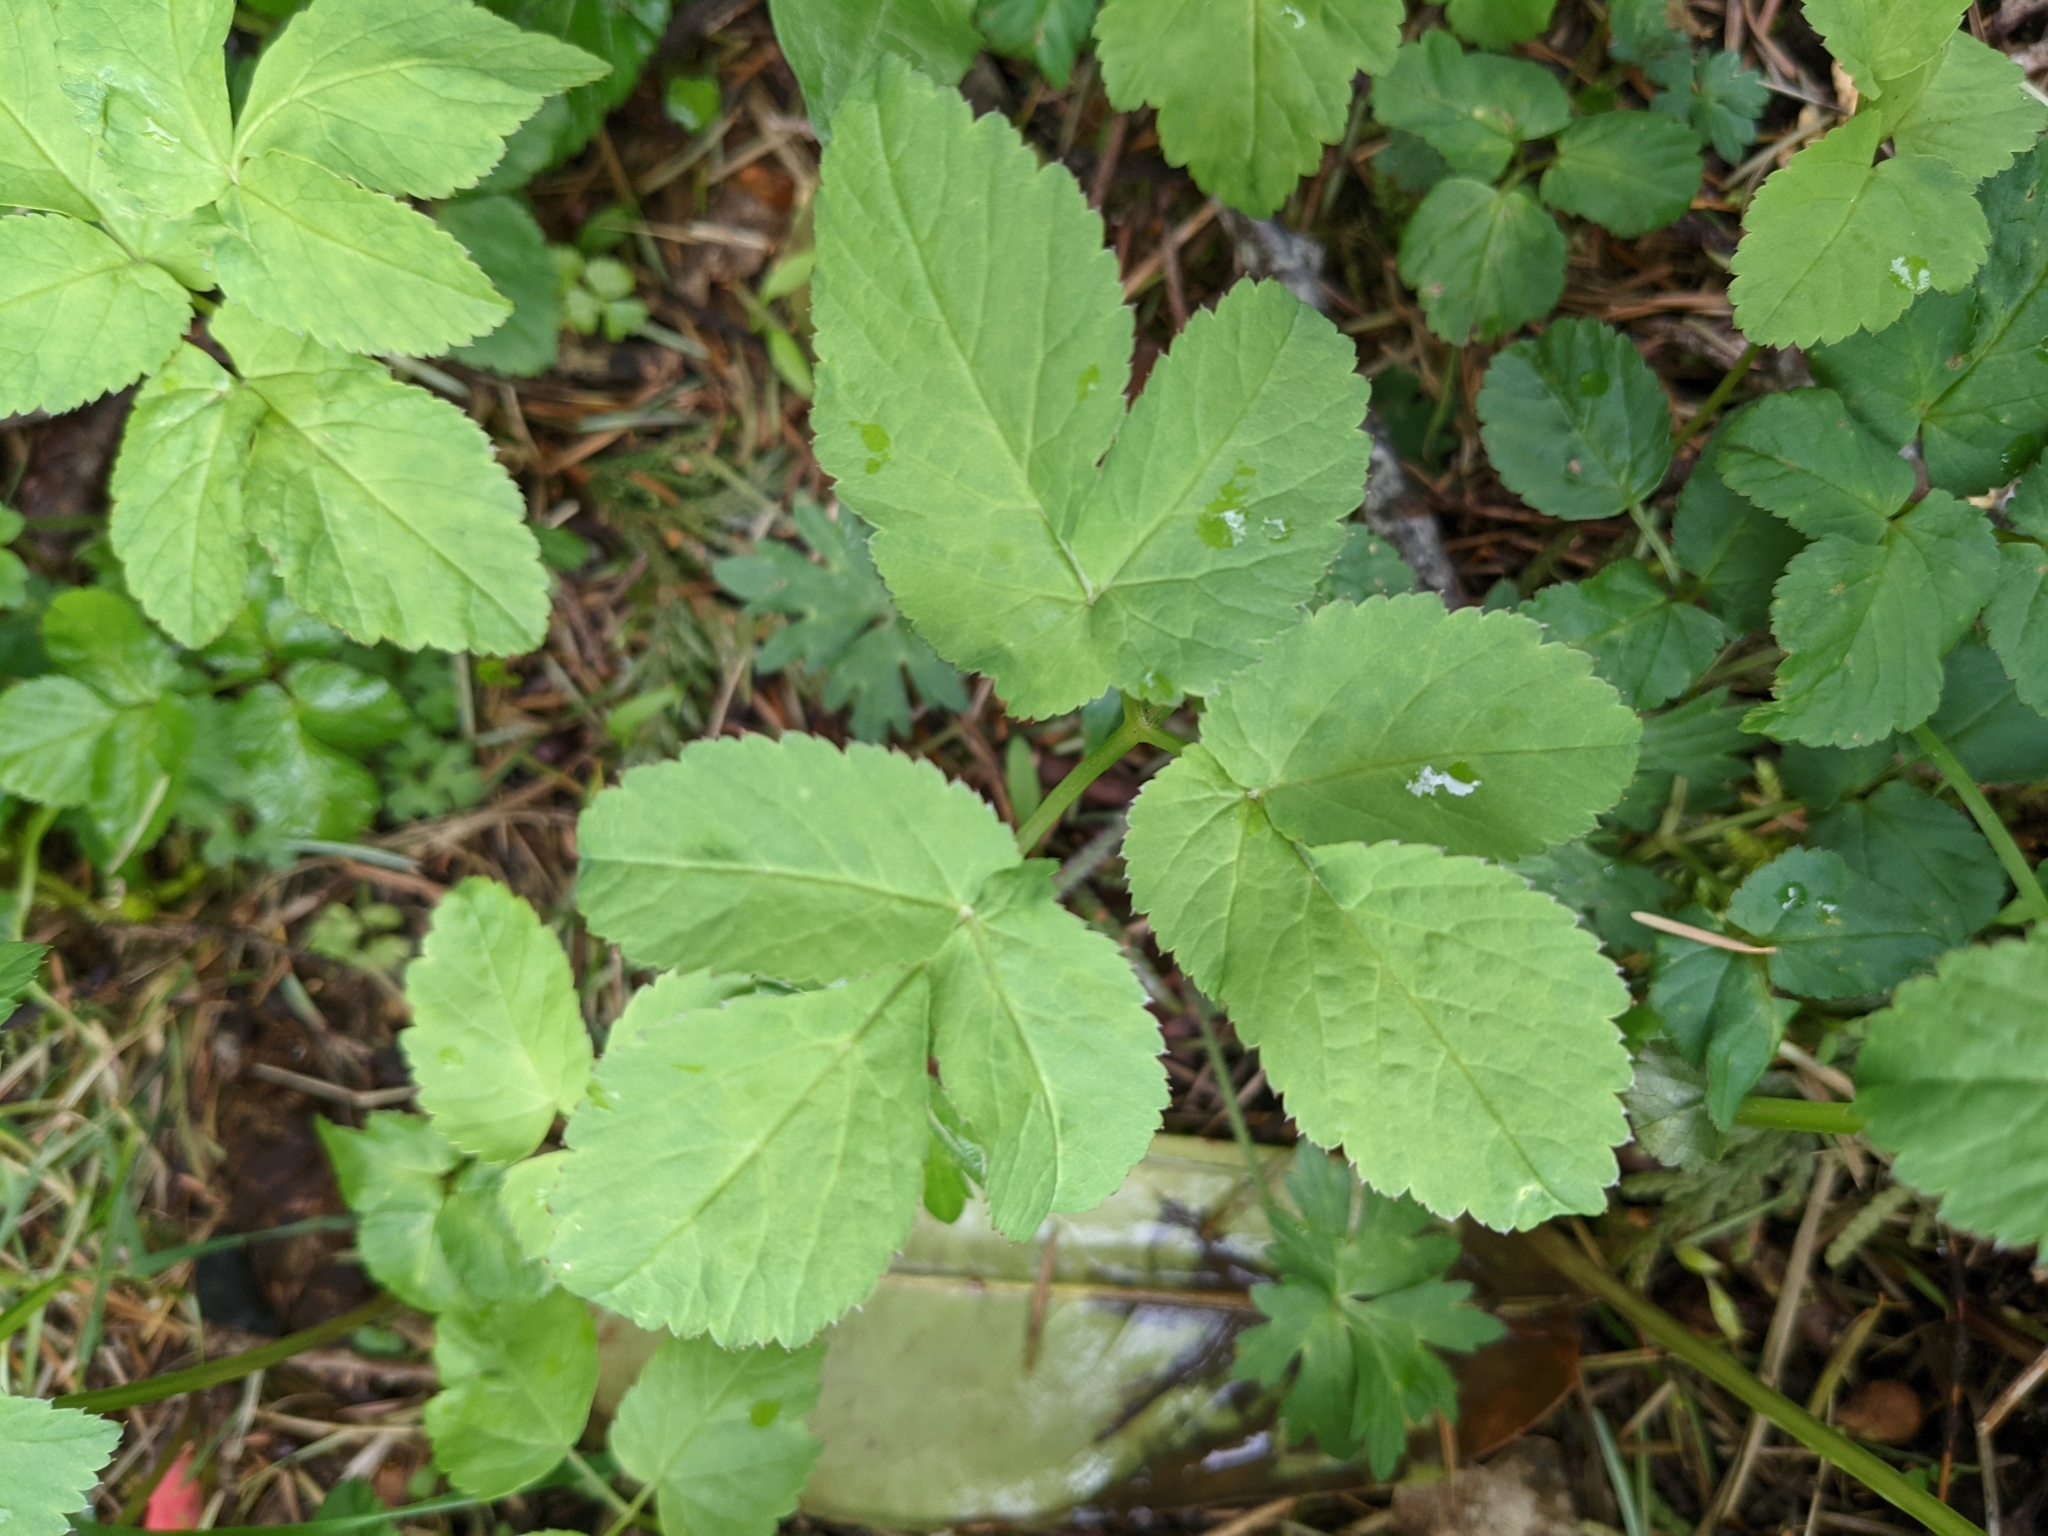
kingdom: Plantae
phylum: Tracheophyta
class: Magnoliopsida
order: Apiales
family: Apiaceae
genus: Aegopodium
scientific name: Aegopodium podagraria
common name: Ground-elder
